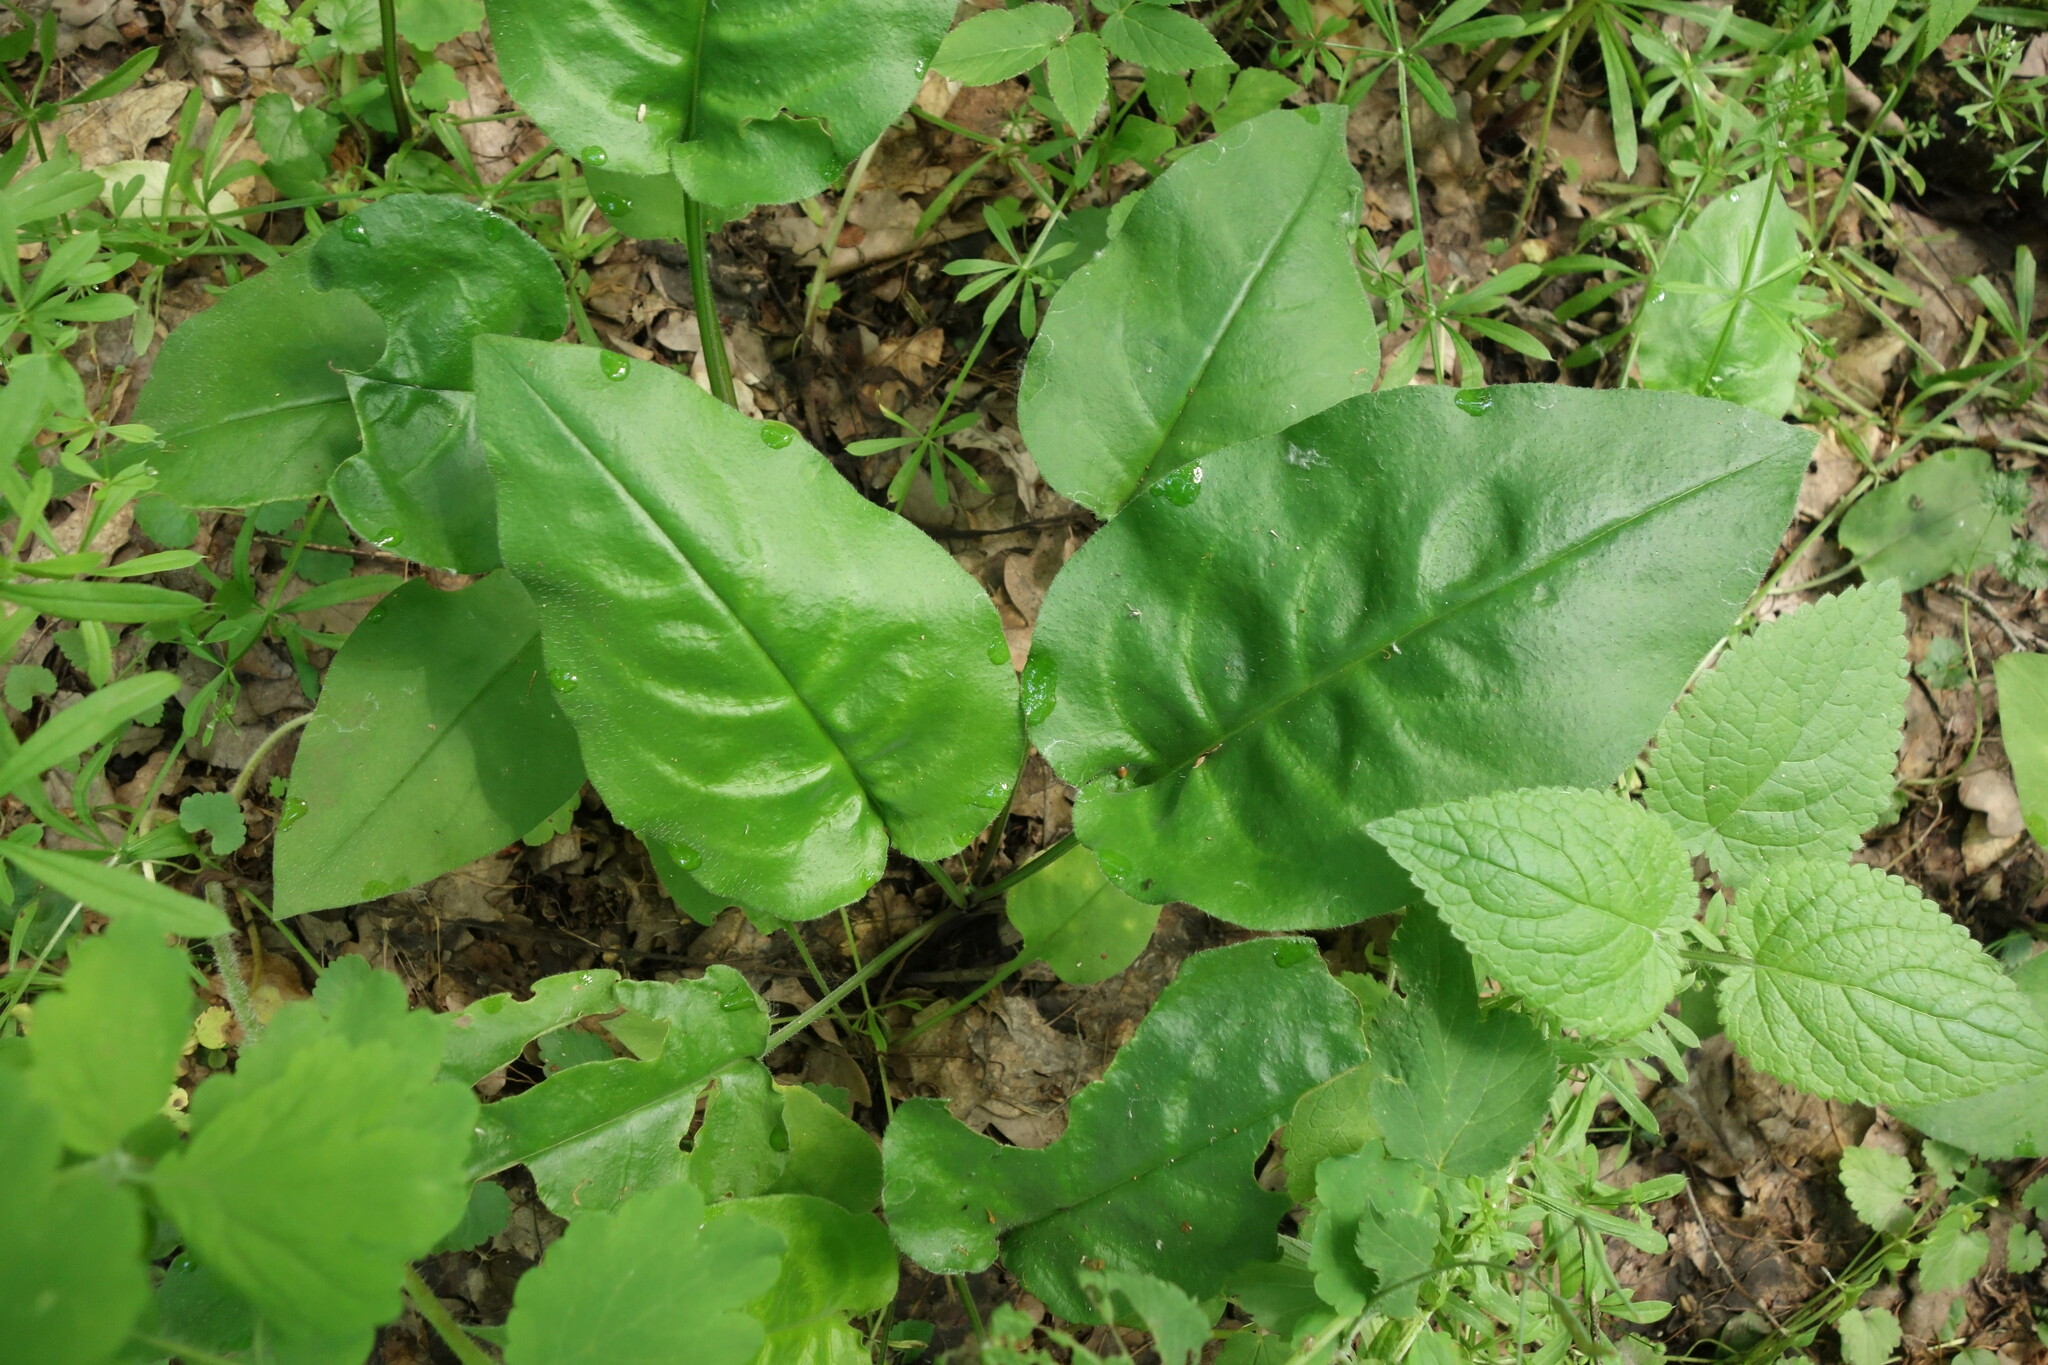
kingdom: Plantae
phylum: Tracheophyta
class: Magnoliopsida
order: Boraginales
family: Boraginaceae
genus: Pulmonaria
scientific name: Pulmonaria obscura
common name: Suffolk lungwort
